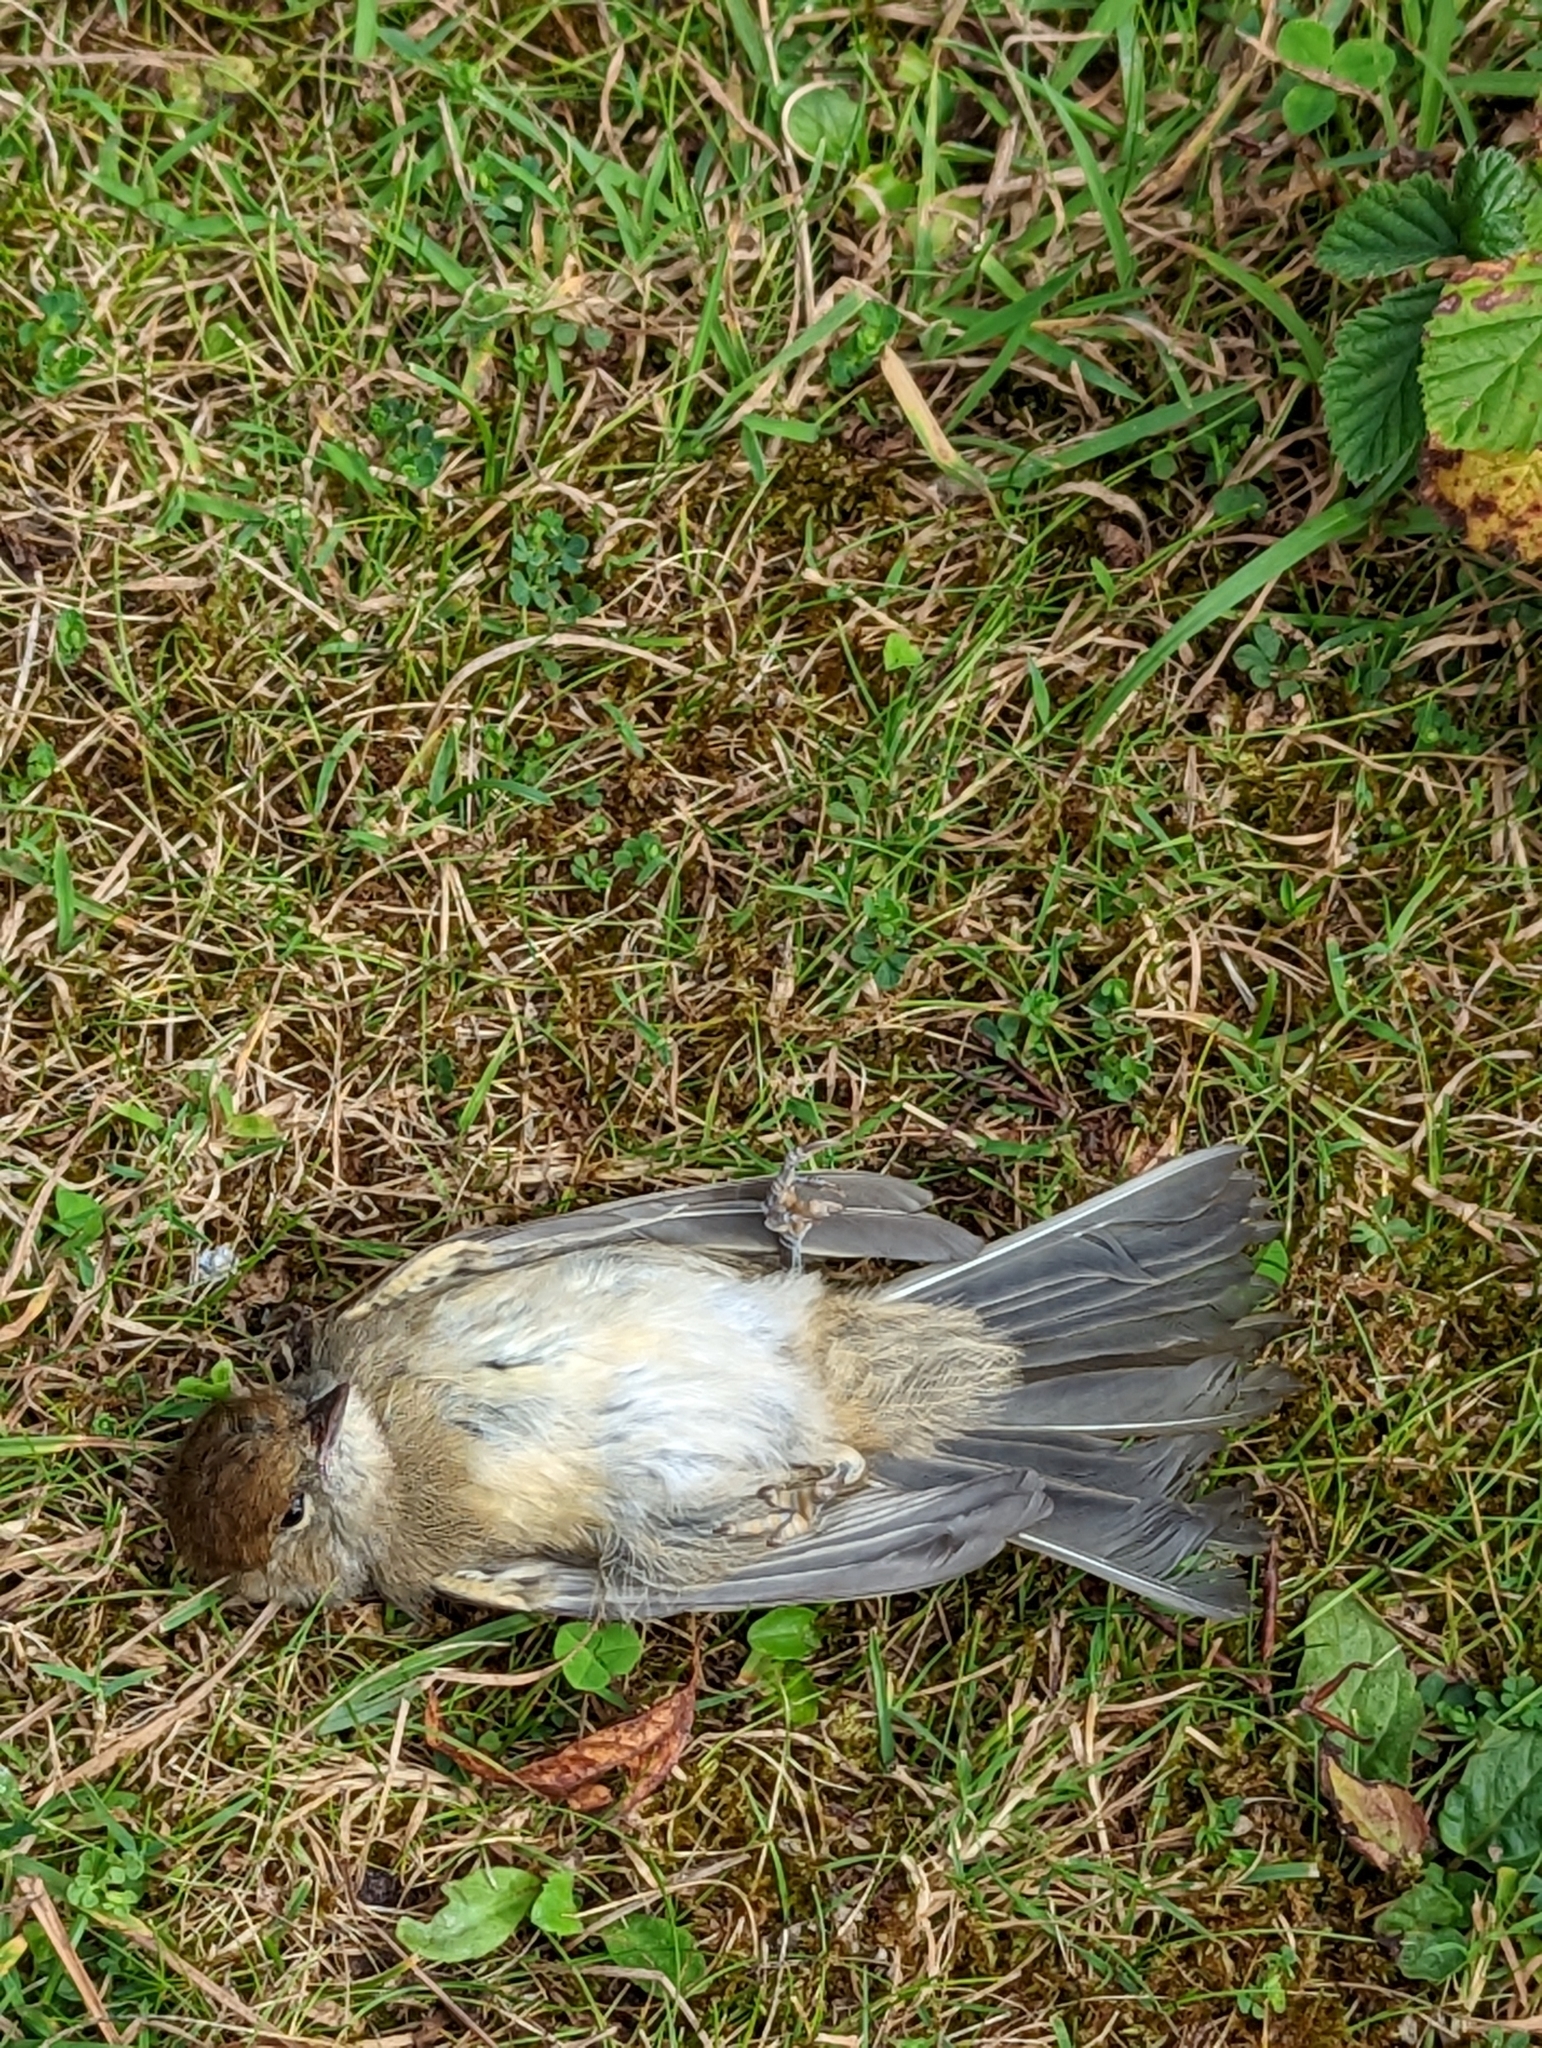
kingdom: Animalia
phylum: Chordata
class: Aves
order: Passeriformes
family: Sylviidae
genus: Sylvia
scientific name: Sylvia atricapilla
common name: Eurasian blackcap
